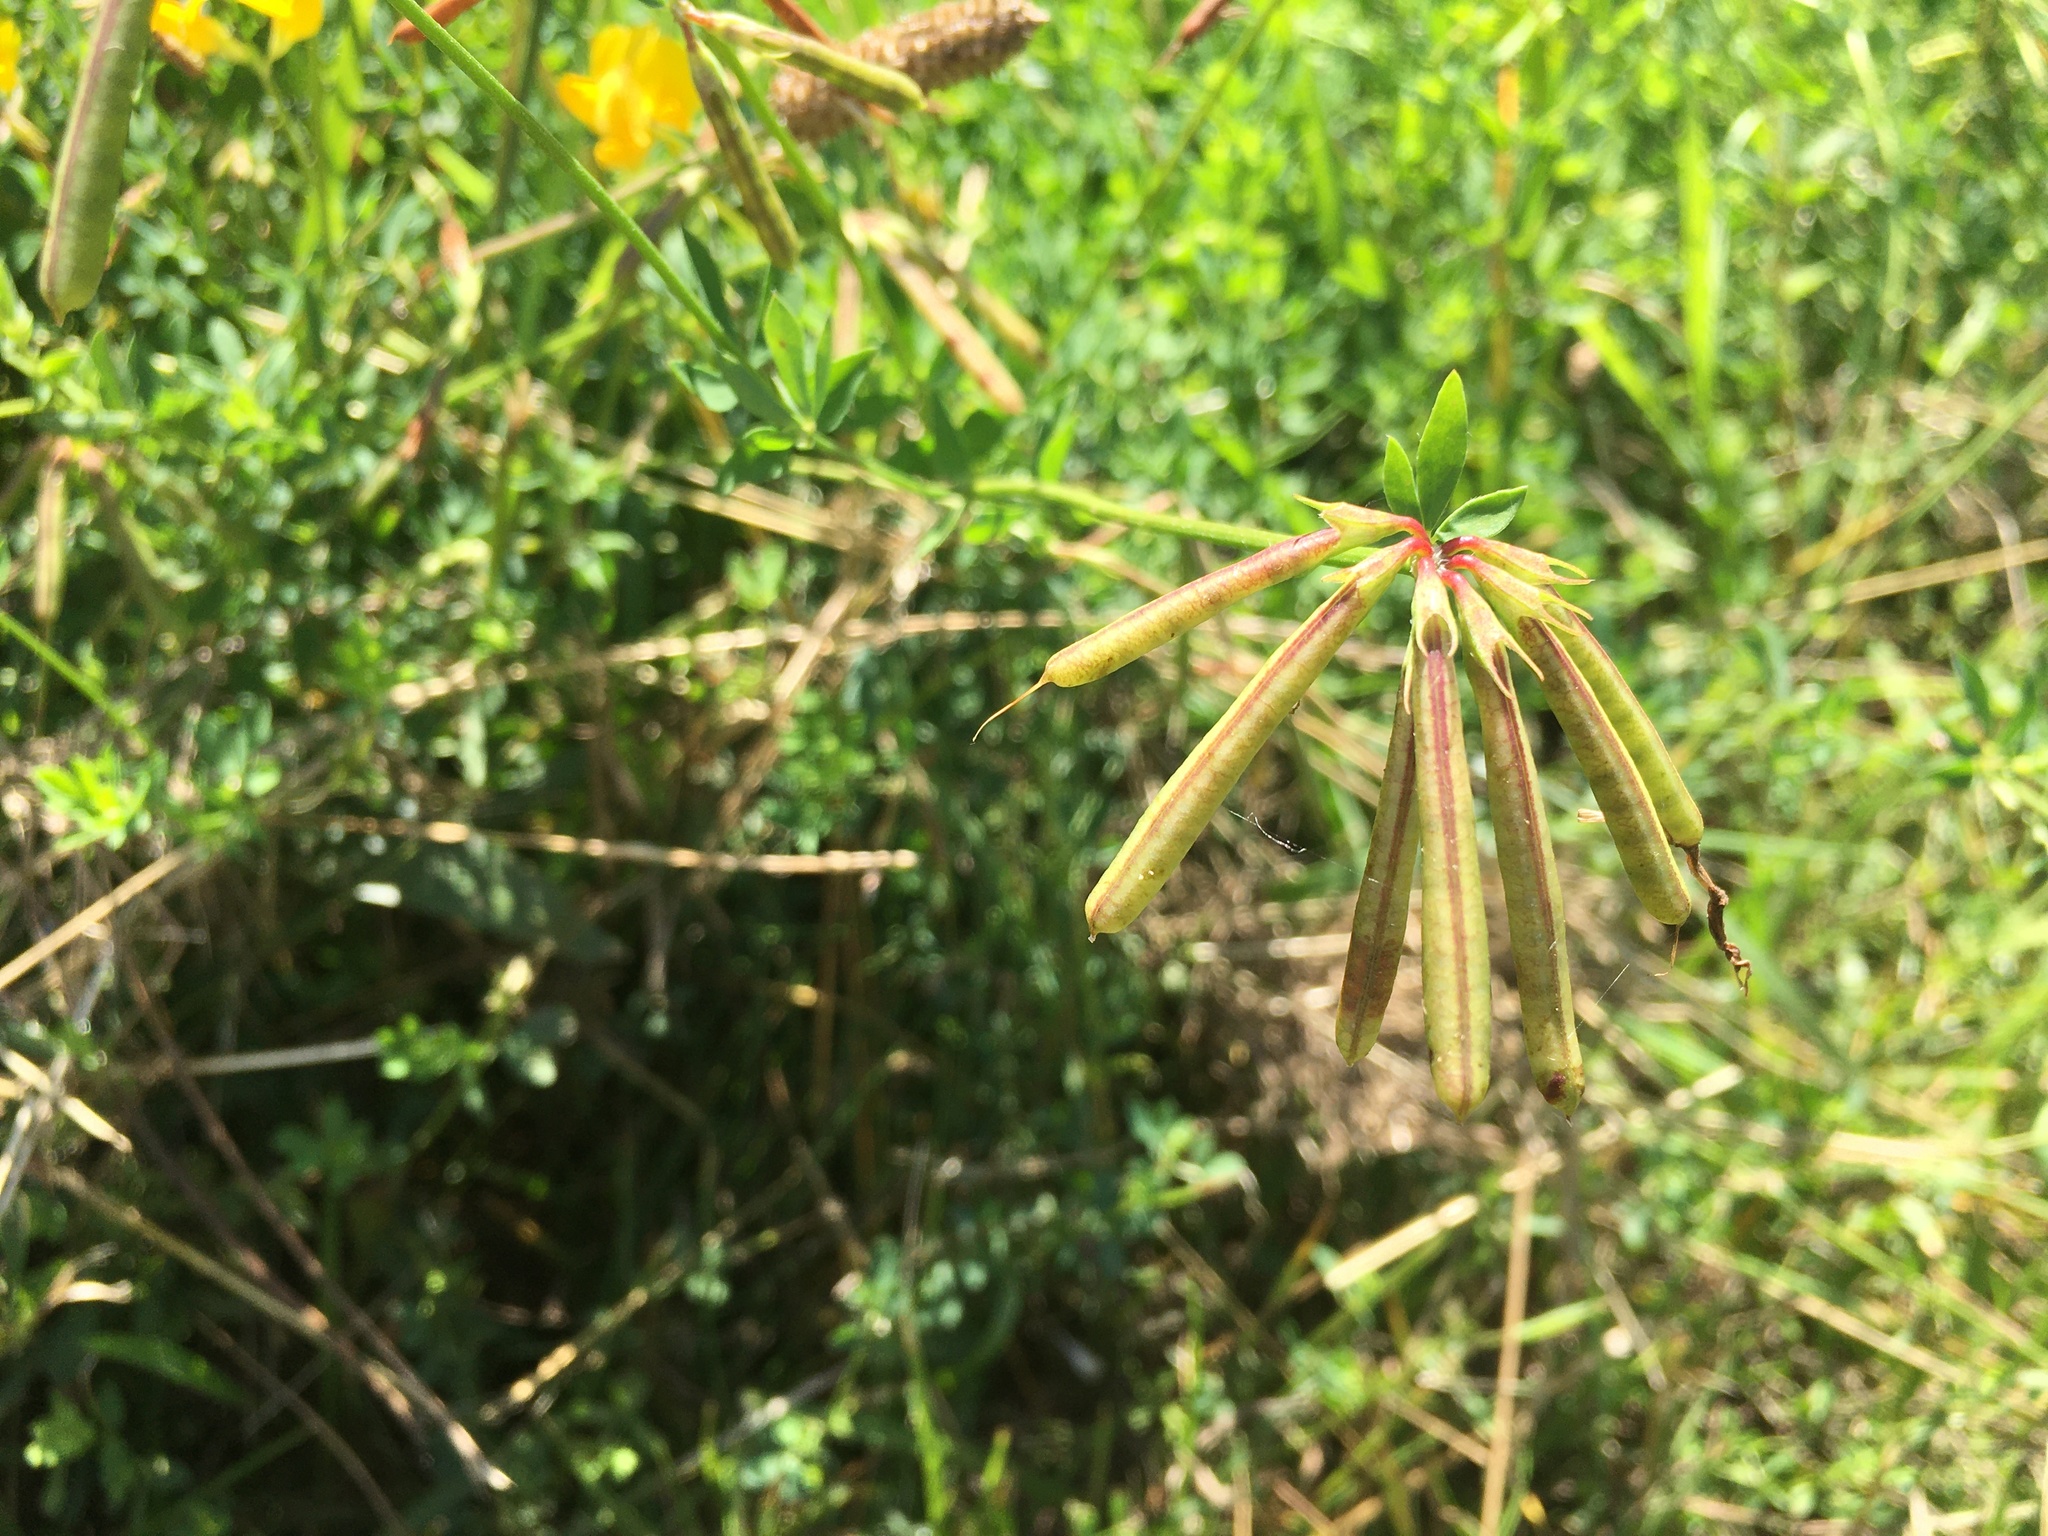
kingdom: Plantae
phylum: Tracheophyta
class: Magnoliopsida
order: Fabales
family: Fabaceae
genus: Lotus
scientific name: Lotus corniculatus
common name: Common bird's-foot-trefoil
